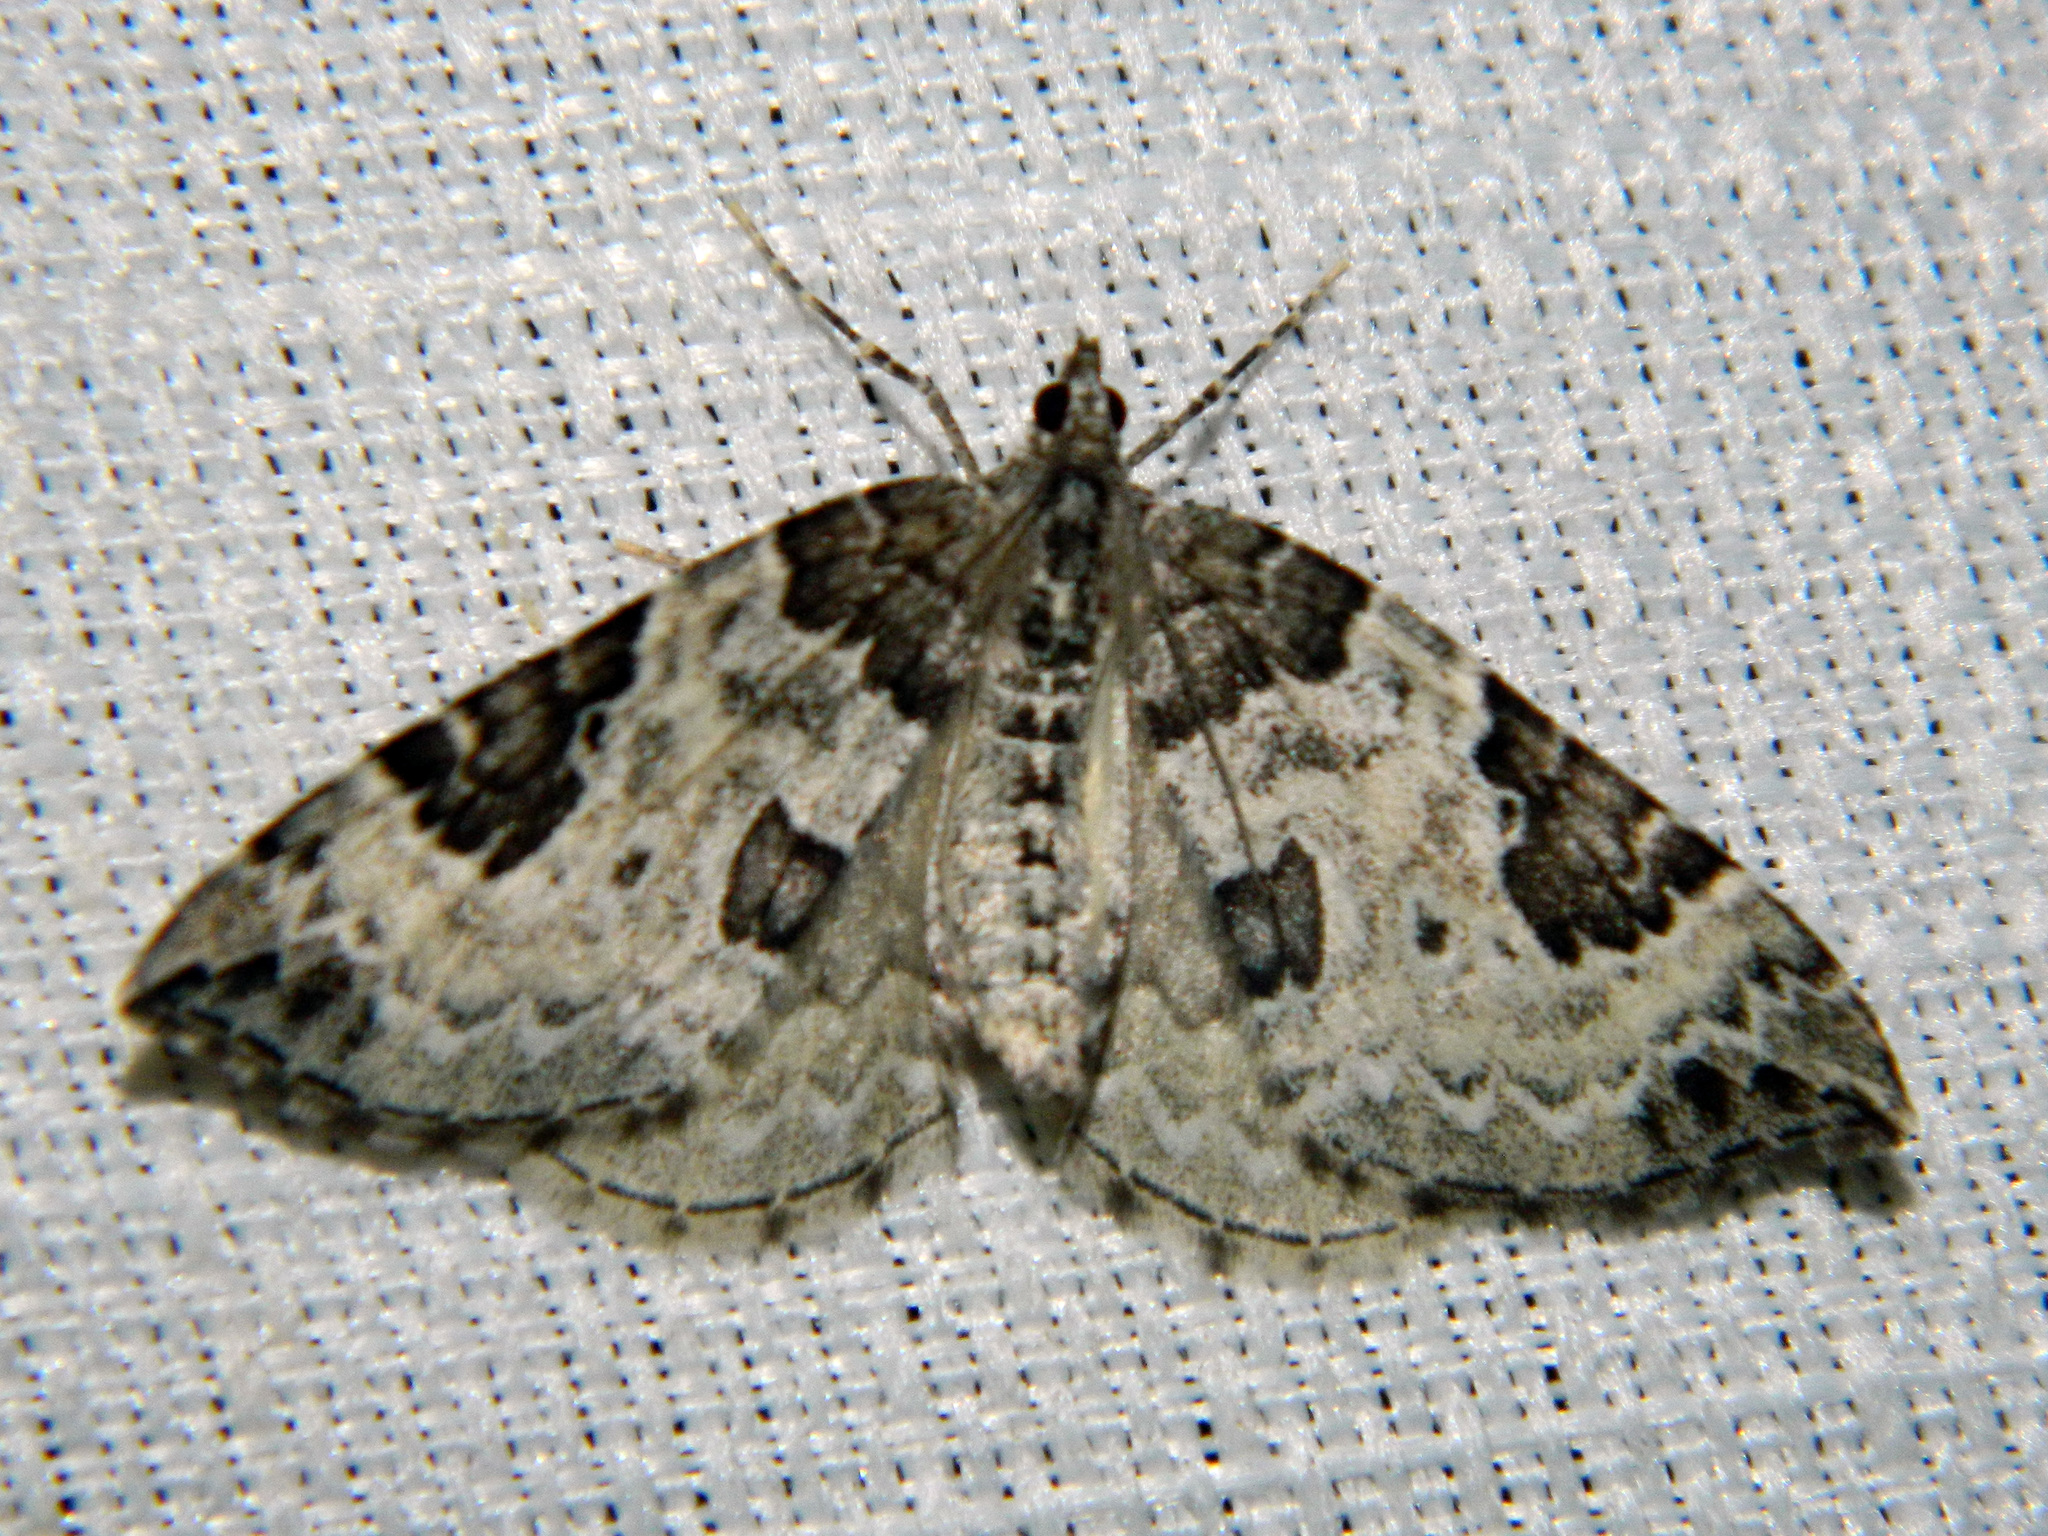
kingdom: Animalia
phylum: Arthropoda
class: Insecta
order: Lepidoptera
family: Geometridae
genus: Eulithis
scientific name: Eulithis explanata
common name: White eulithis
